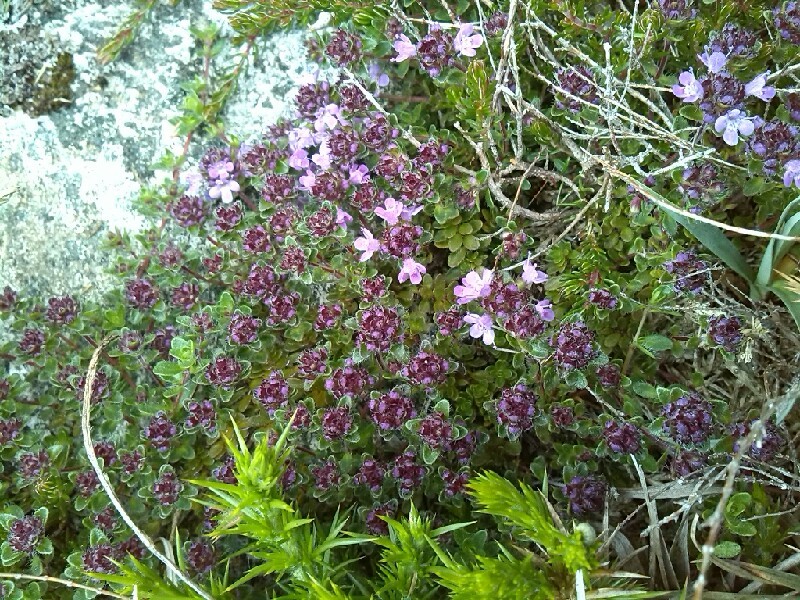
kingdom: Plantae
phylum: Tracheophyta
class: Magnoliopsida
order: Lamiales
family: Lamiaceae
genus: Thymus
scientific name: Thymus praecox
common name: Wild thyme
